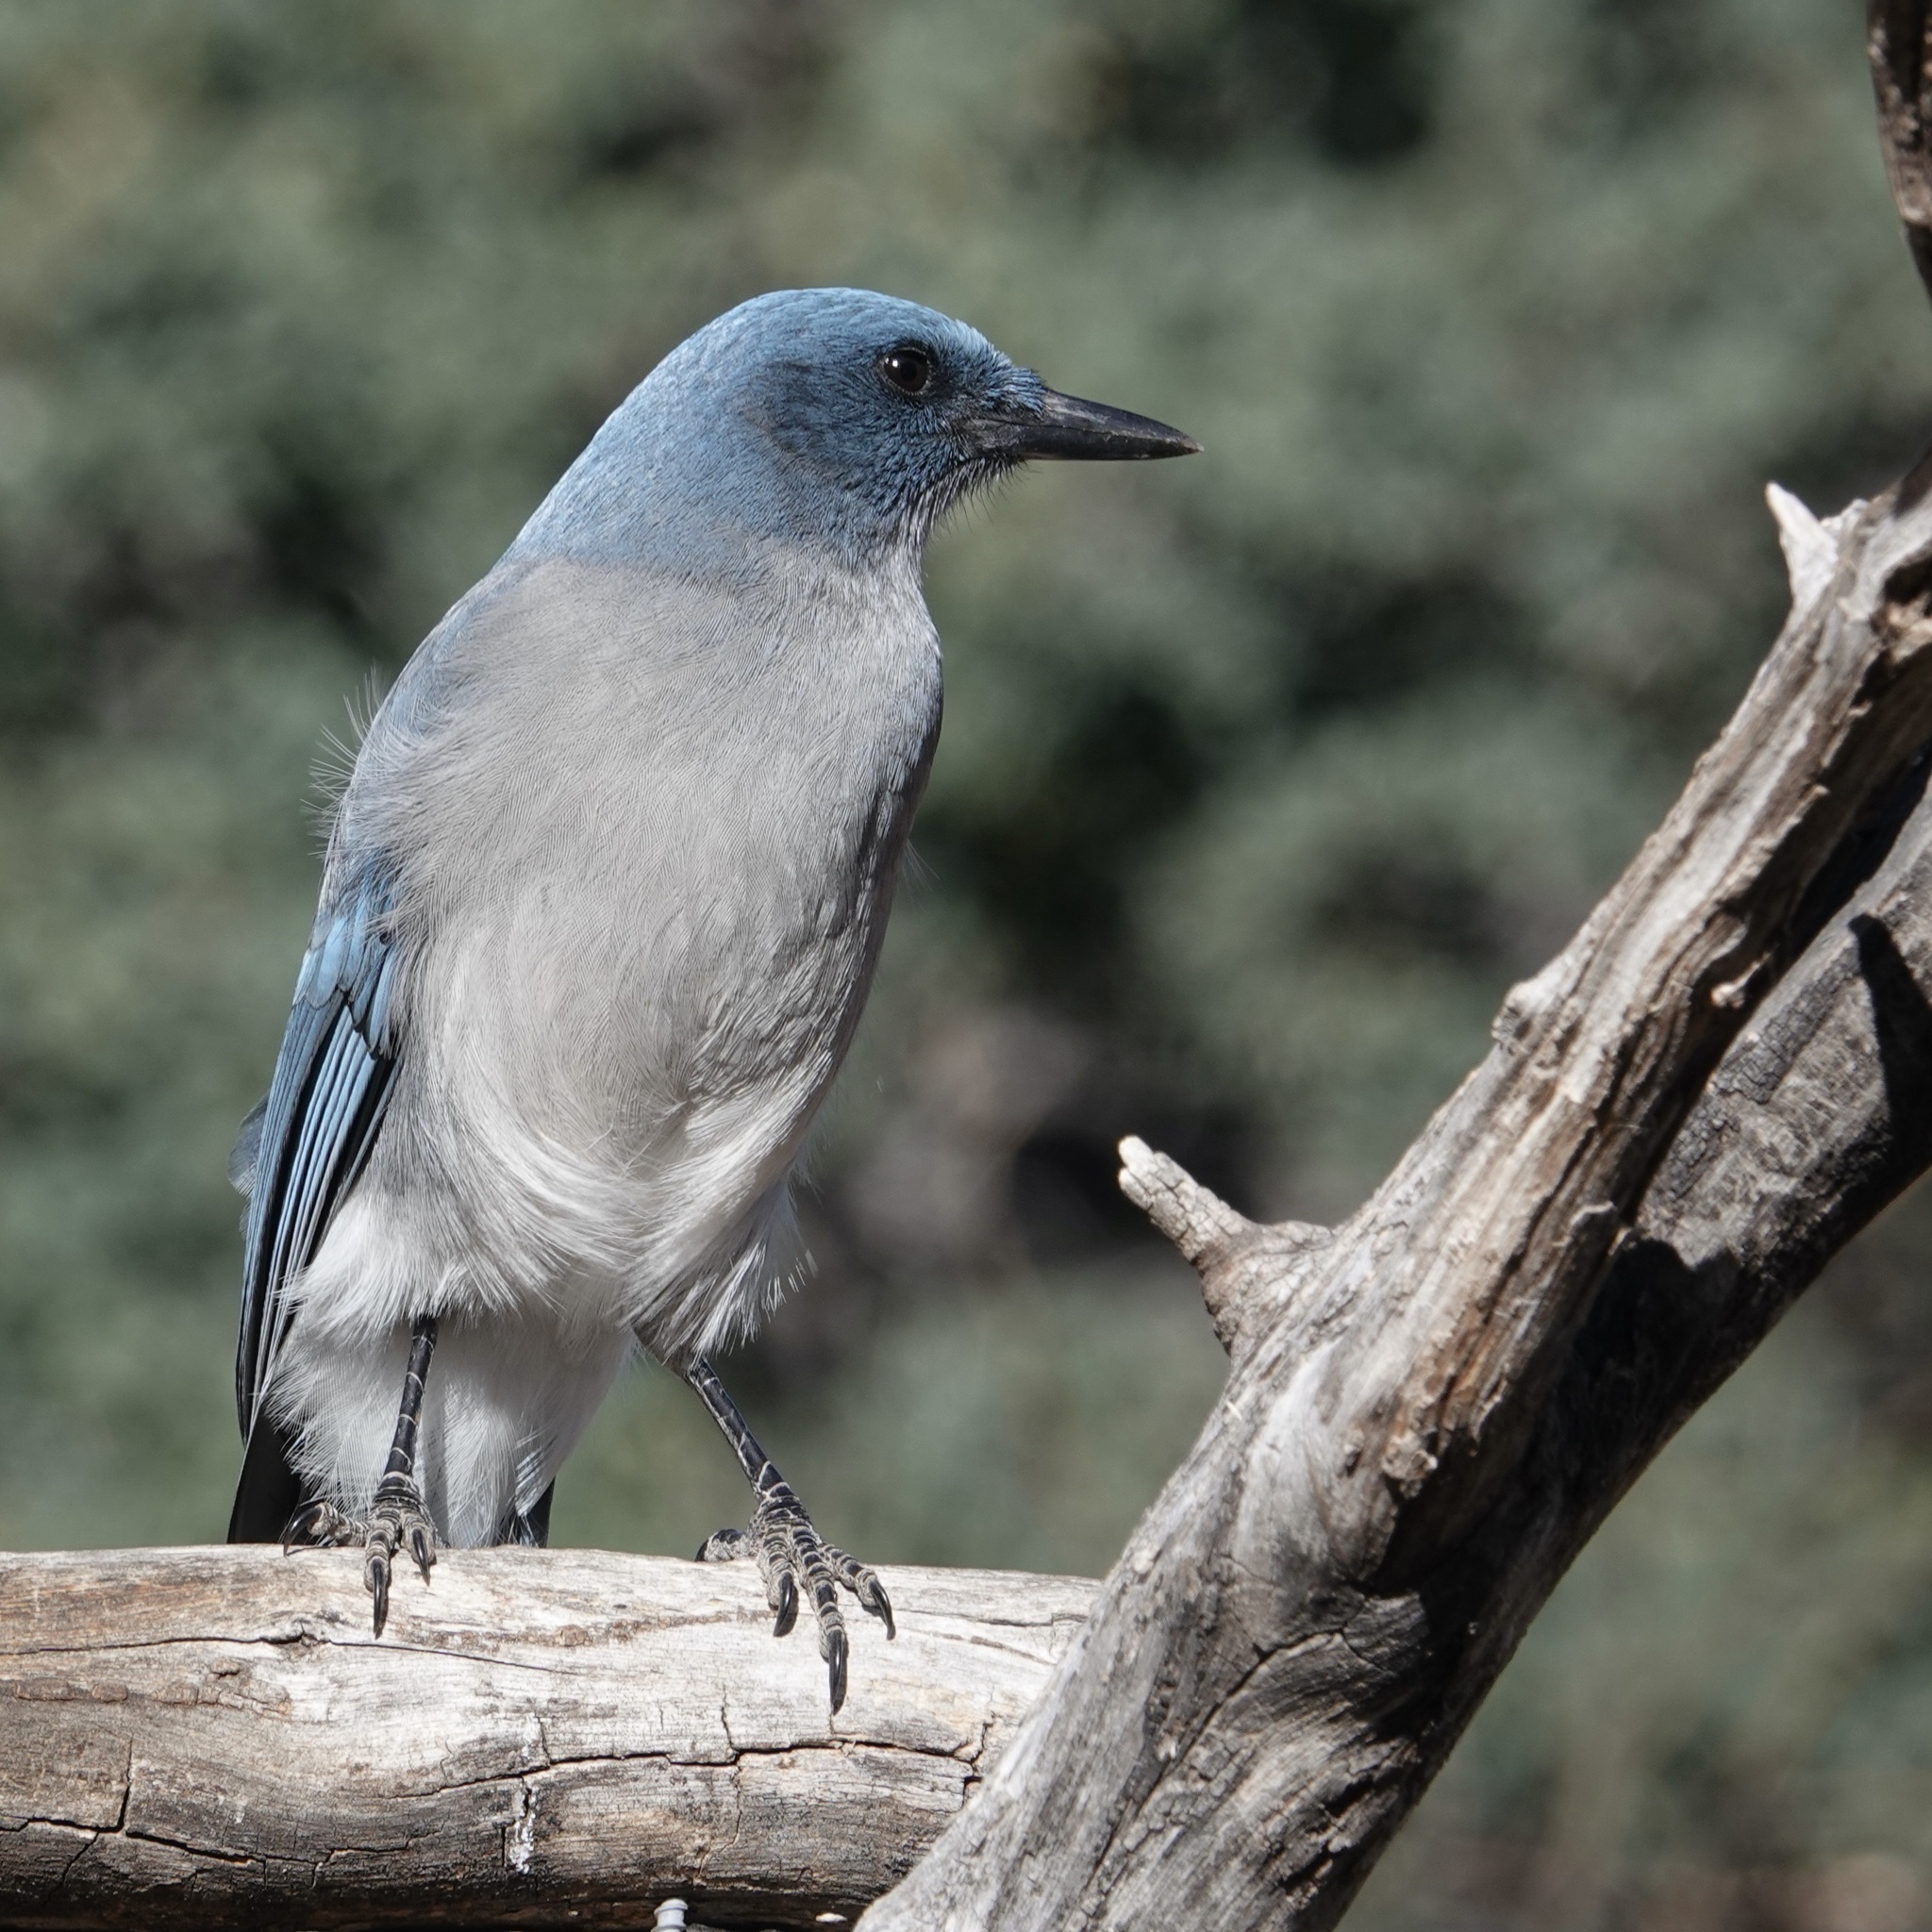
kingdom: Animalia
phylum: Chordata
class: Aves
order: Passeriformes
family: Corvidae
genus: Aphelocoma
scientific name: Aphelocoma wollweberi
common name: Mexican jay
